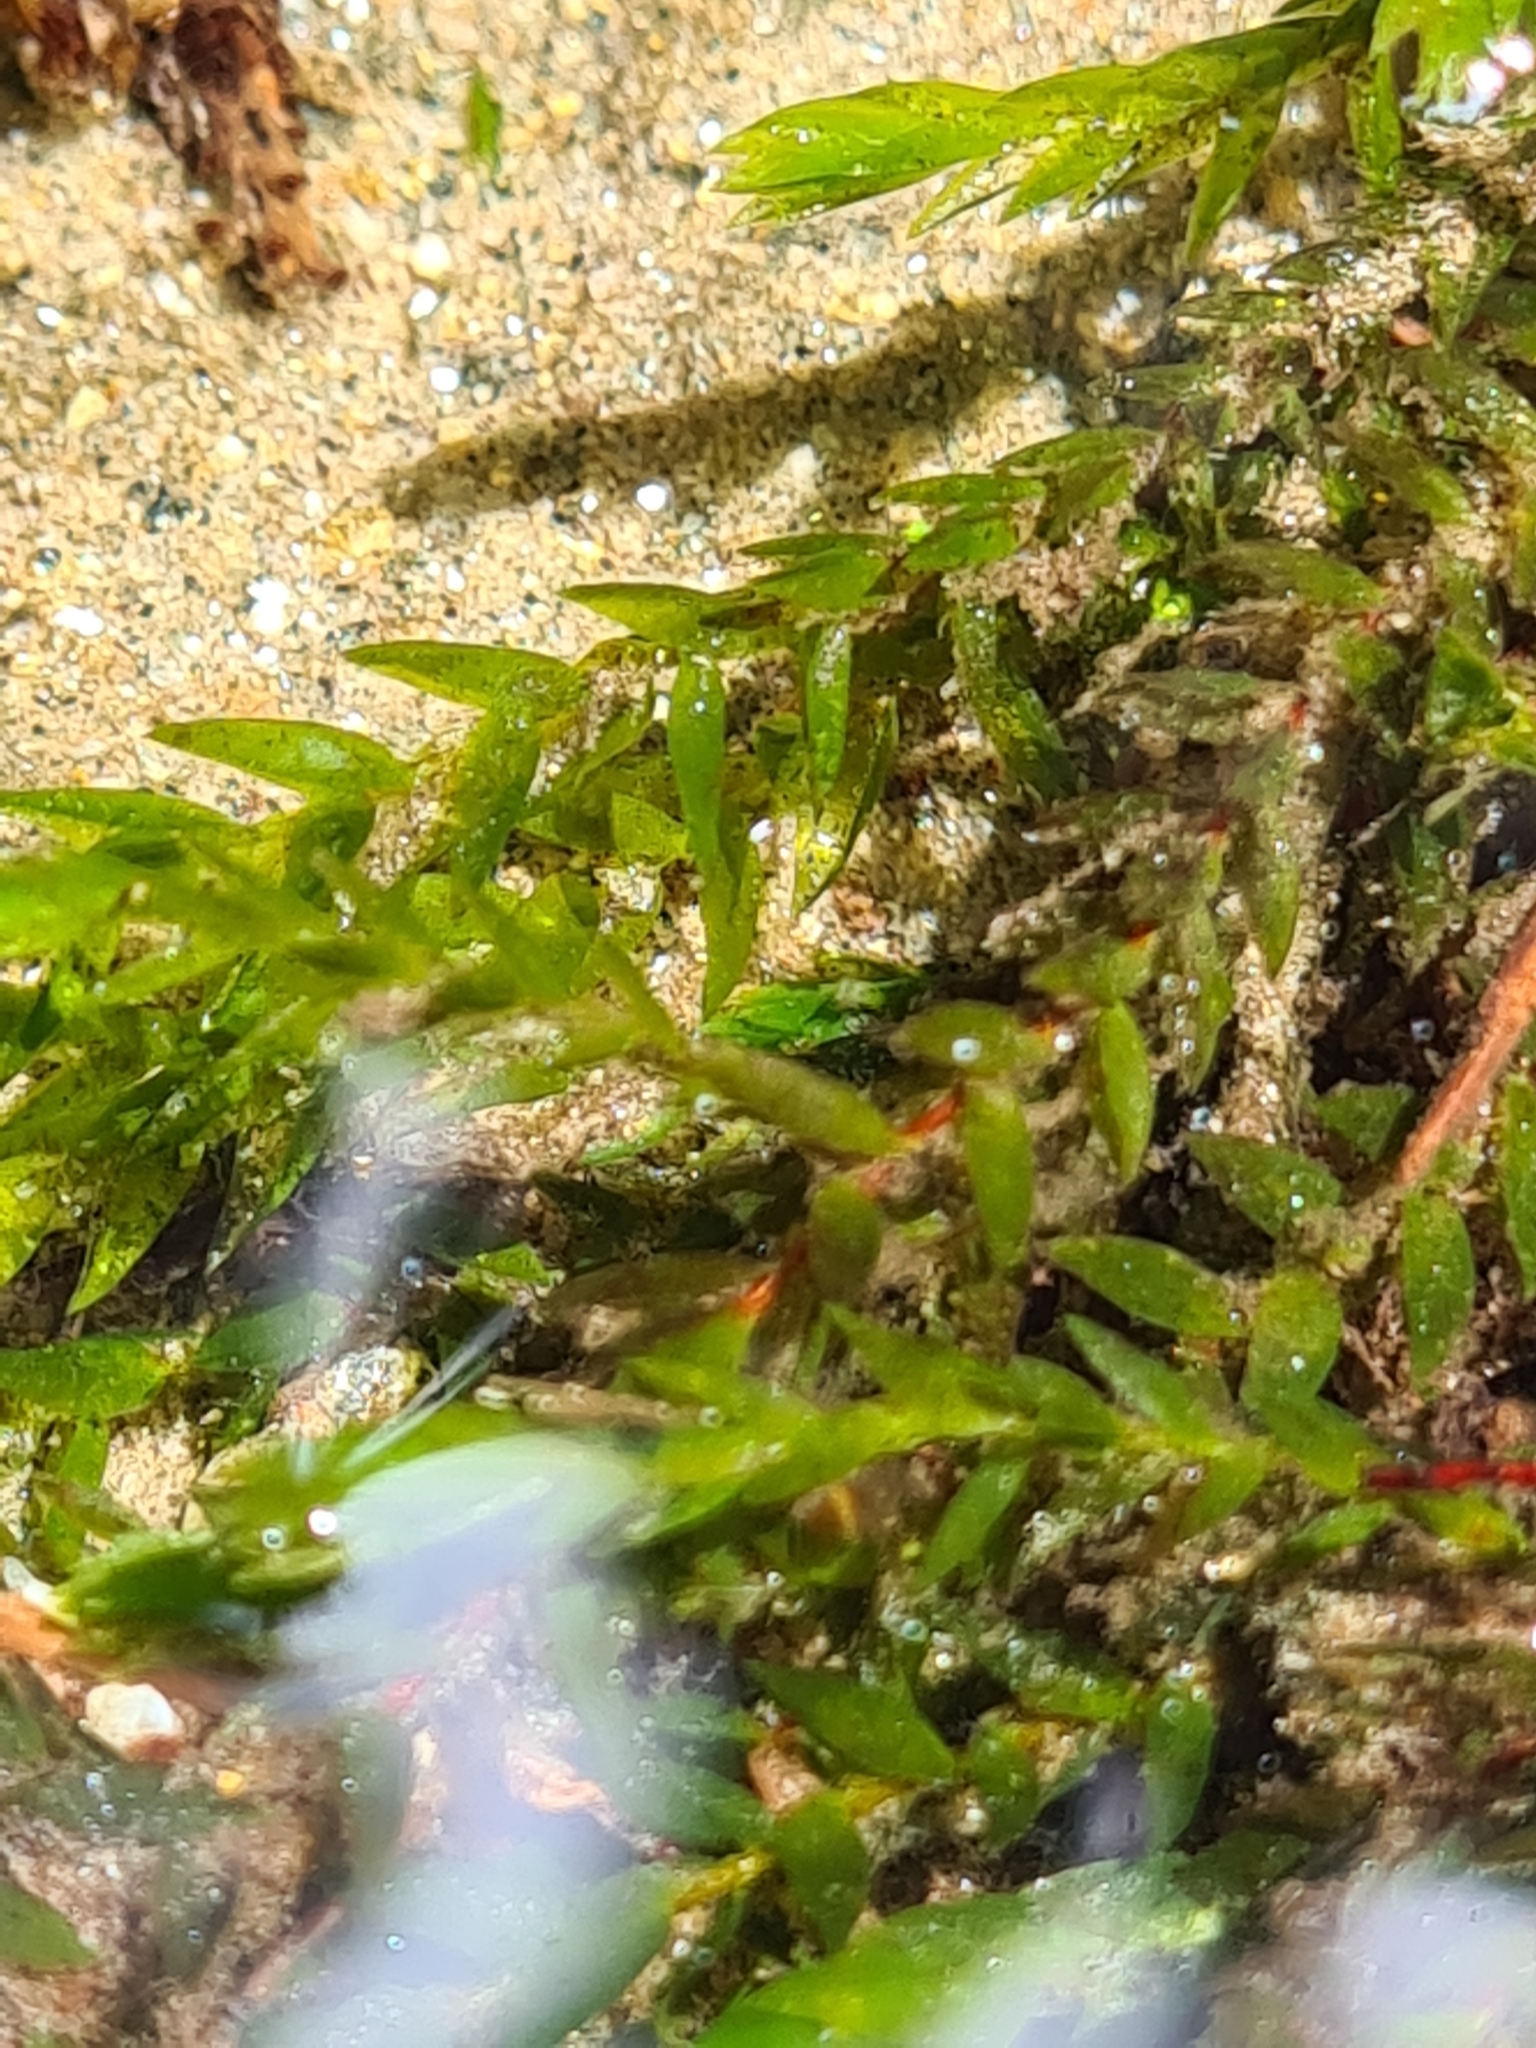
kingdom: Plantae
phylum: Bryophyta
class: Bryopsida
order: Hypnales
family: Fontinalaceae
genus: Fontinalis
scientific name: Fontinalis antipyretica
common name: Greater water-moss
